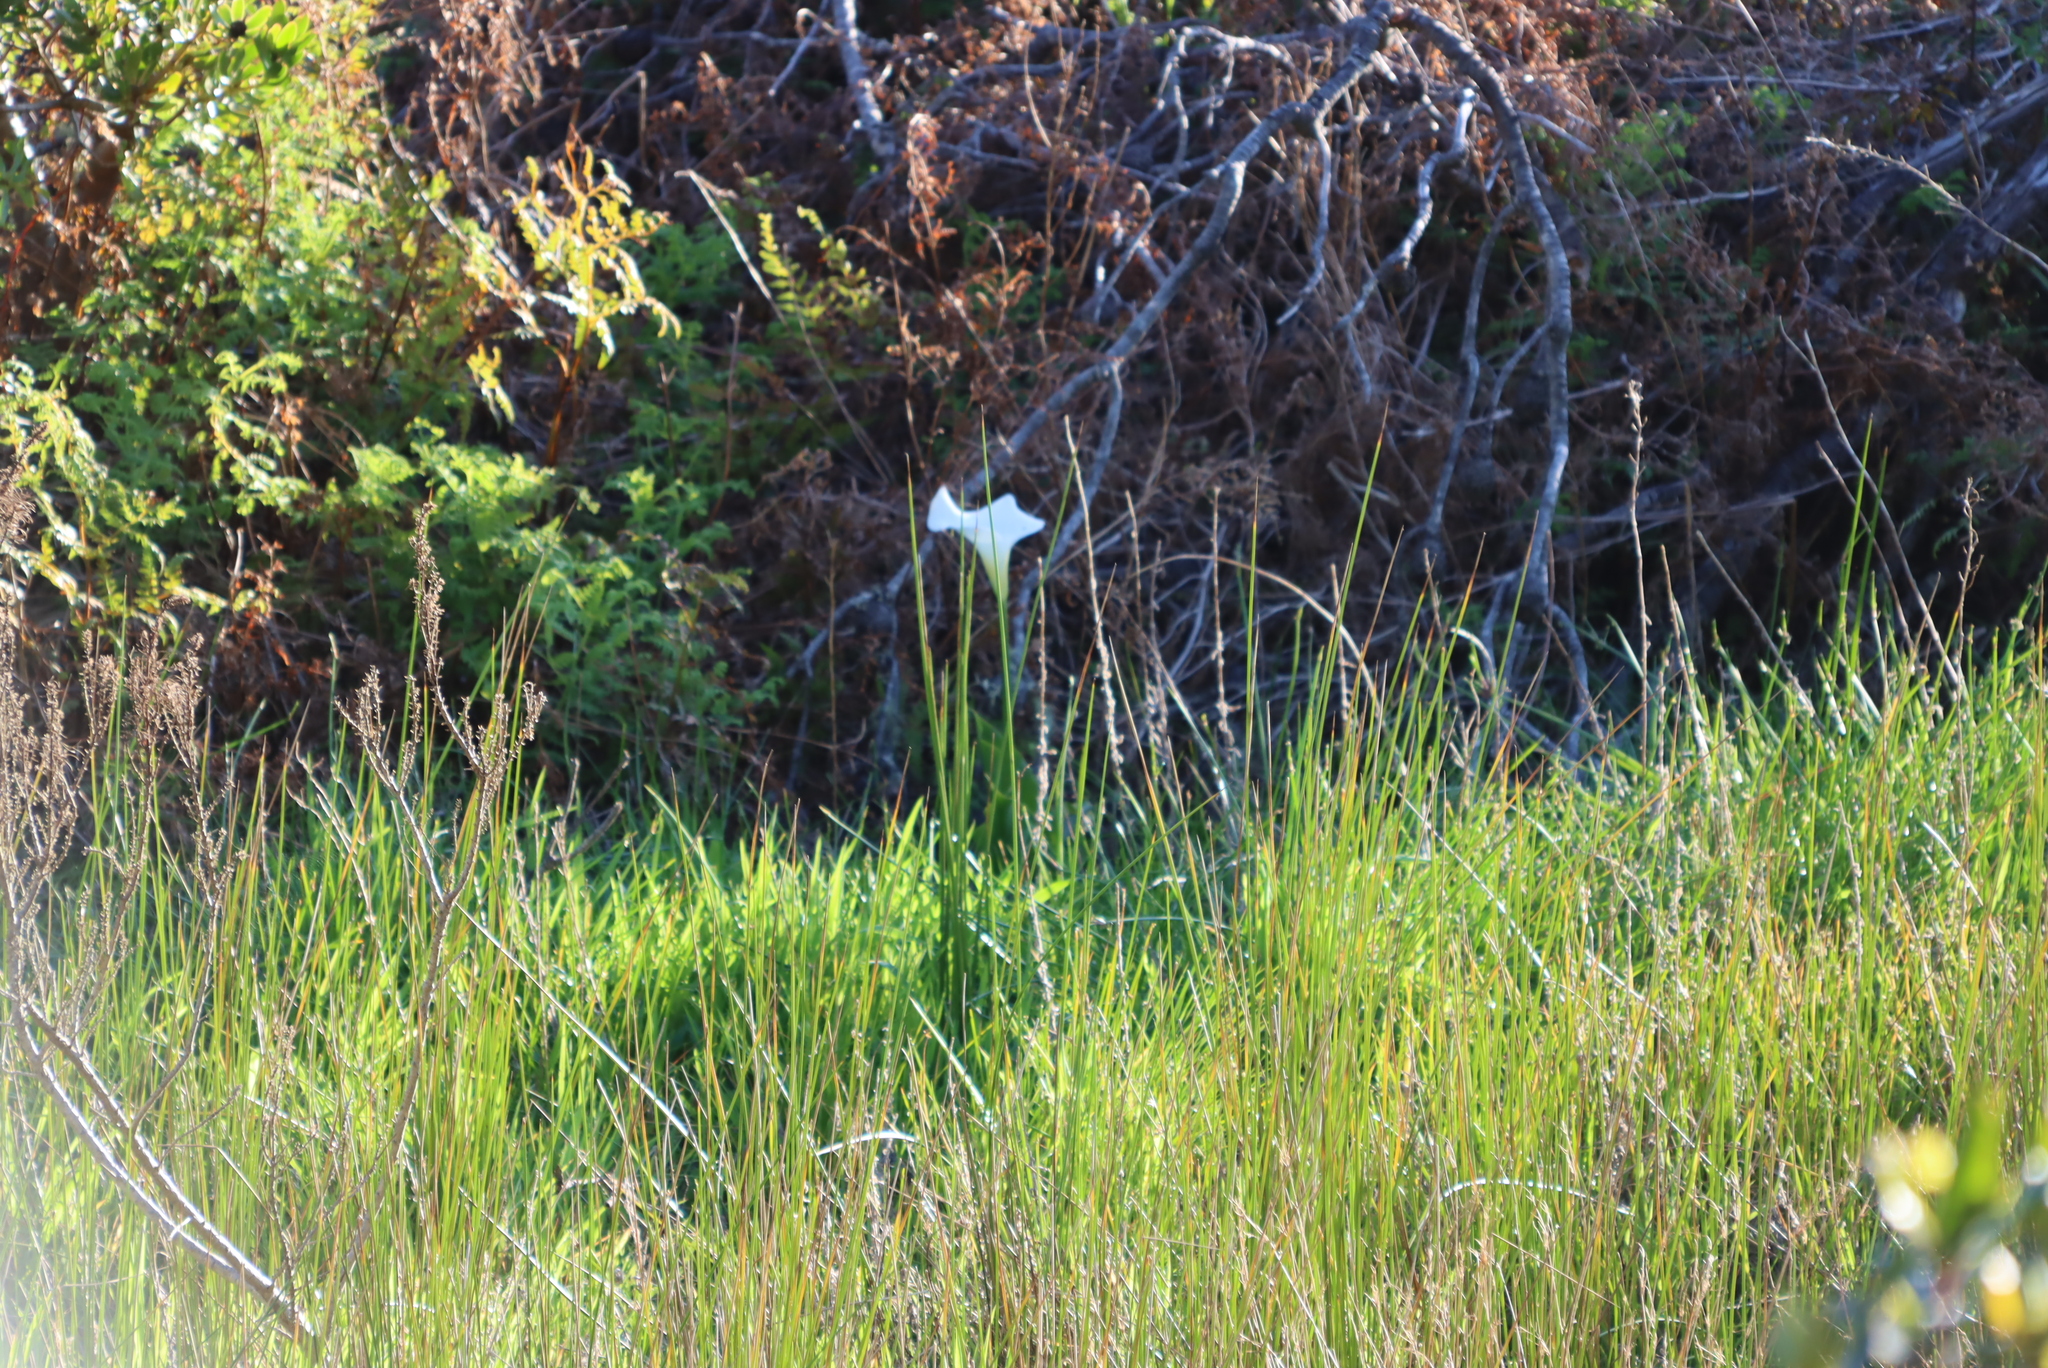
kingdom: Plantae
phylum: Tracheophyta
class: Liliopsida
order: Alismatales
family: Araceae
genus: Zantedeschia
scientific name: Zantedeschia aethiopica
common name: Altar-lily
